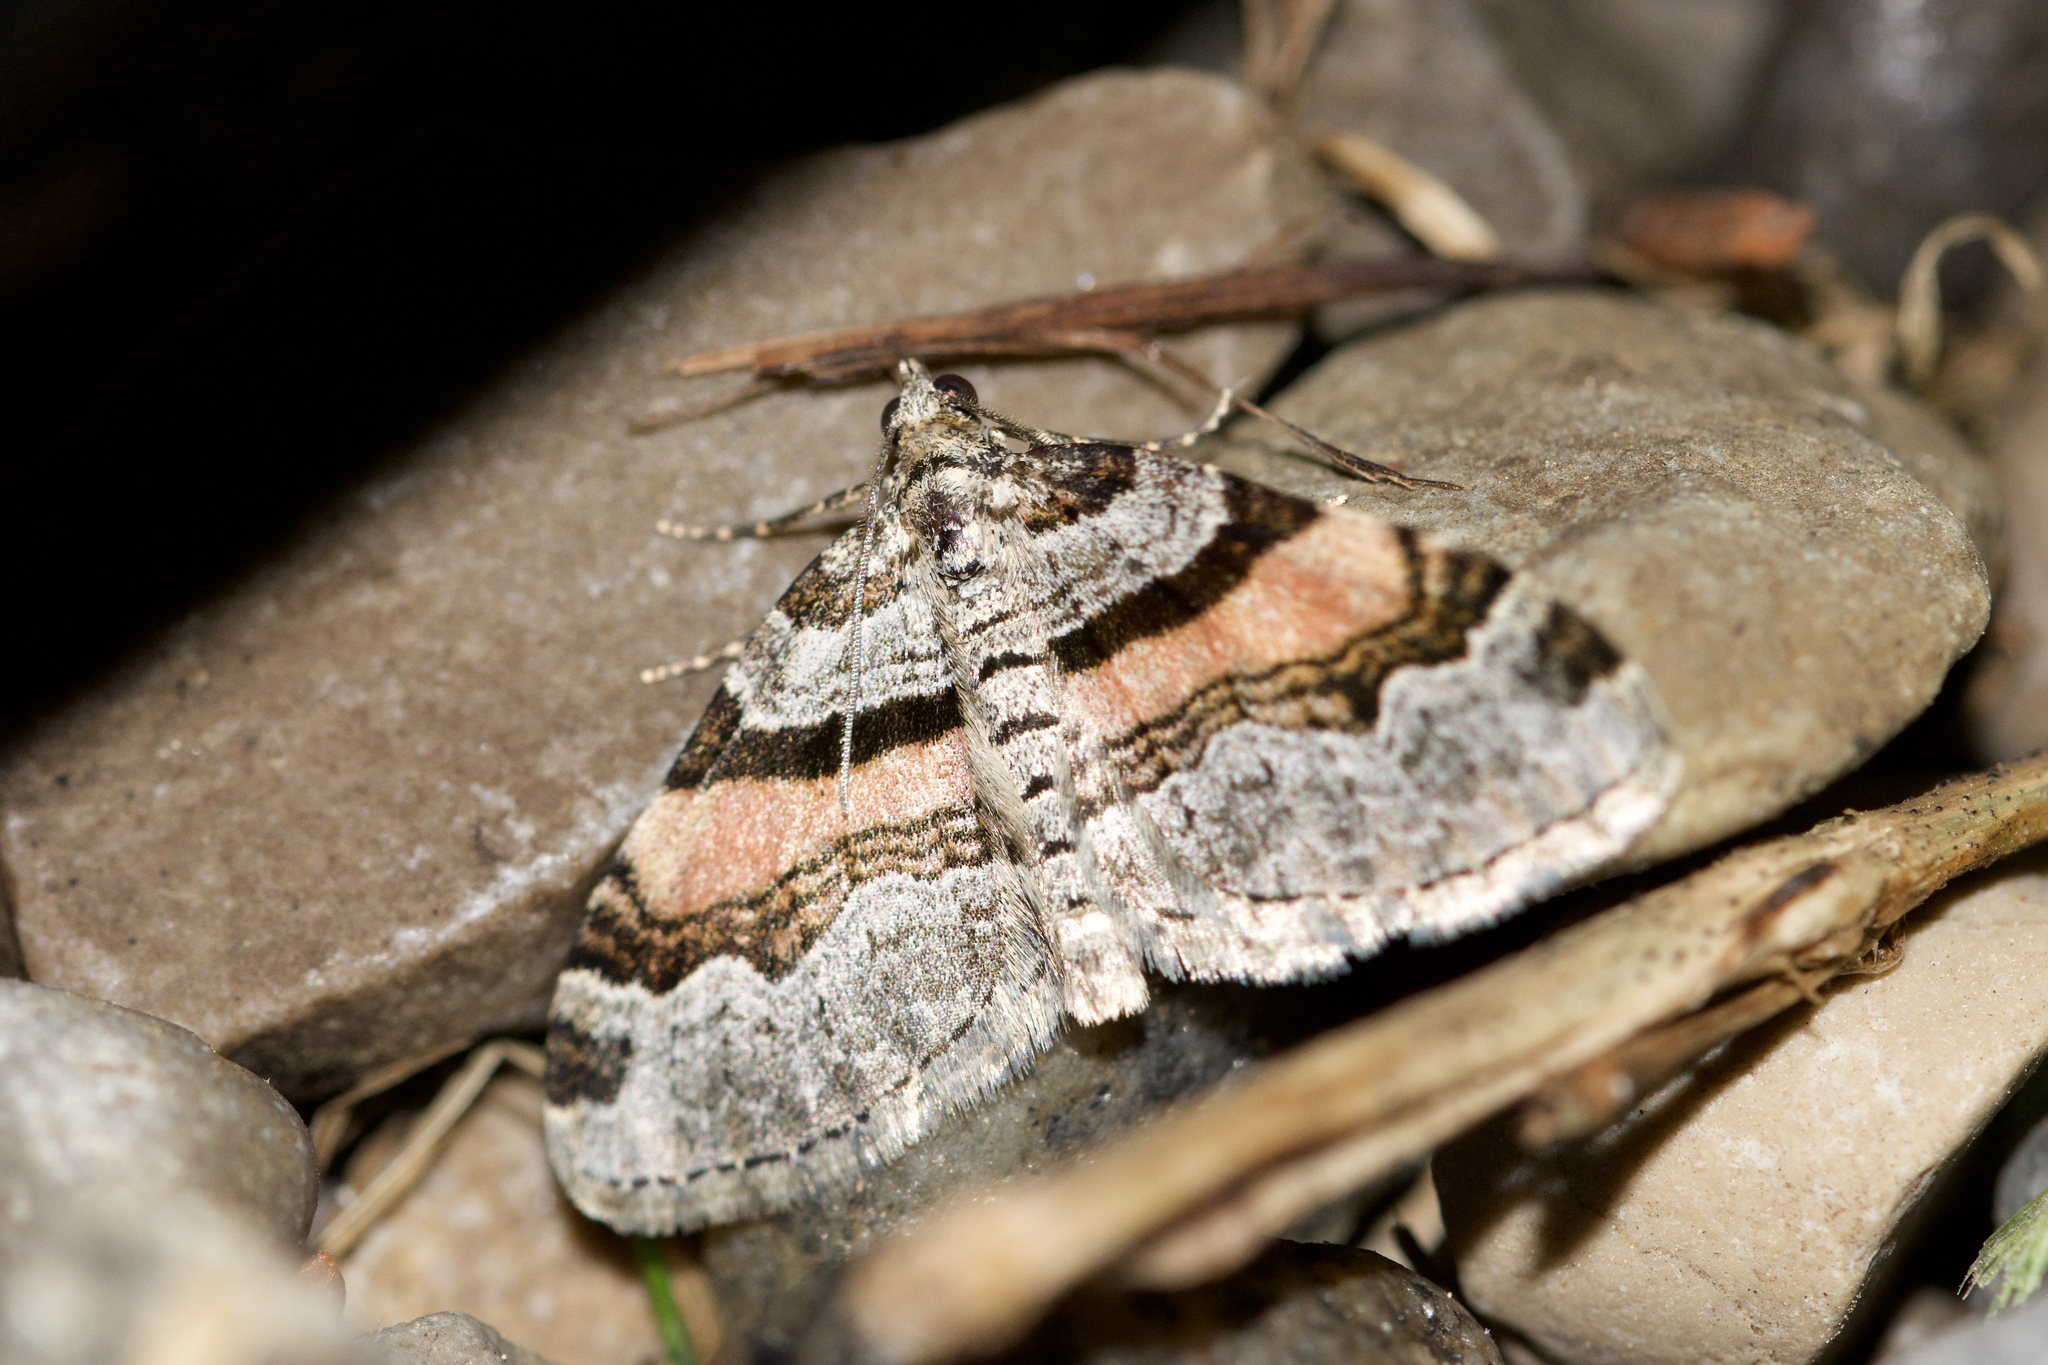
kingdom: Animalia
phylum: Arthropoda
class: Insecta
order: Lepidoptera
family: Geometridae
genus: Xanthorhoe
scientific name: Xanthorhoe labradorensis
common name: Labrador carpet
